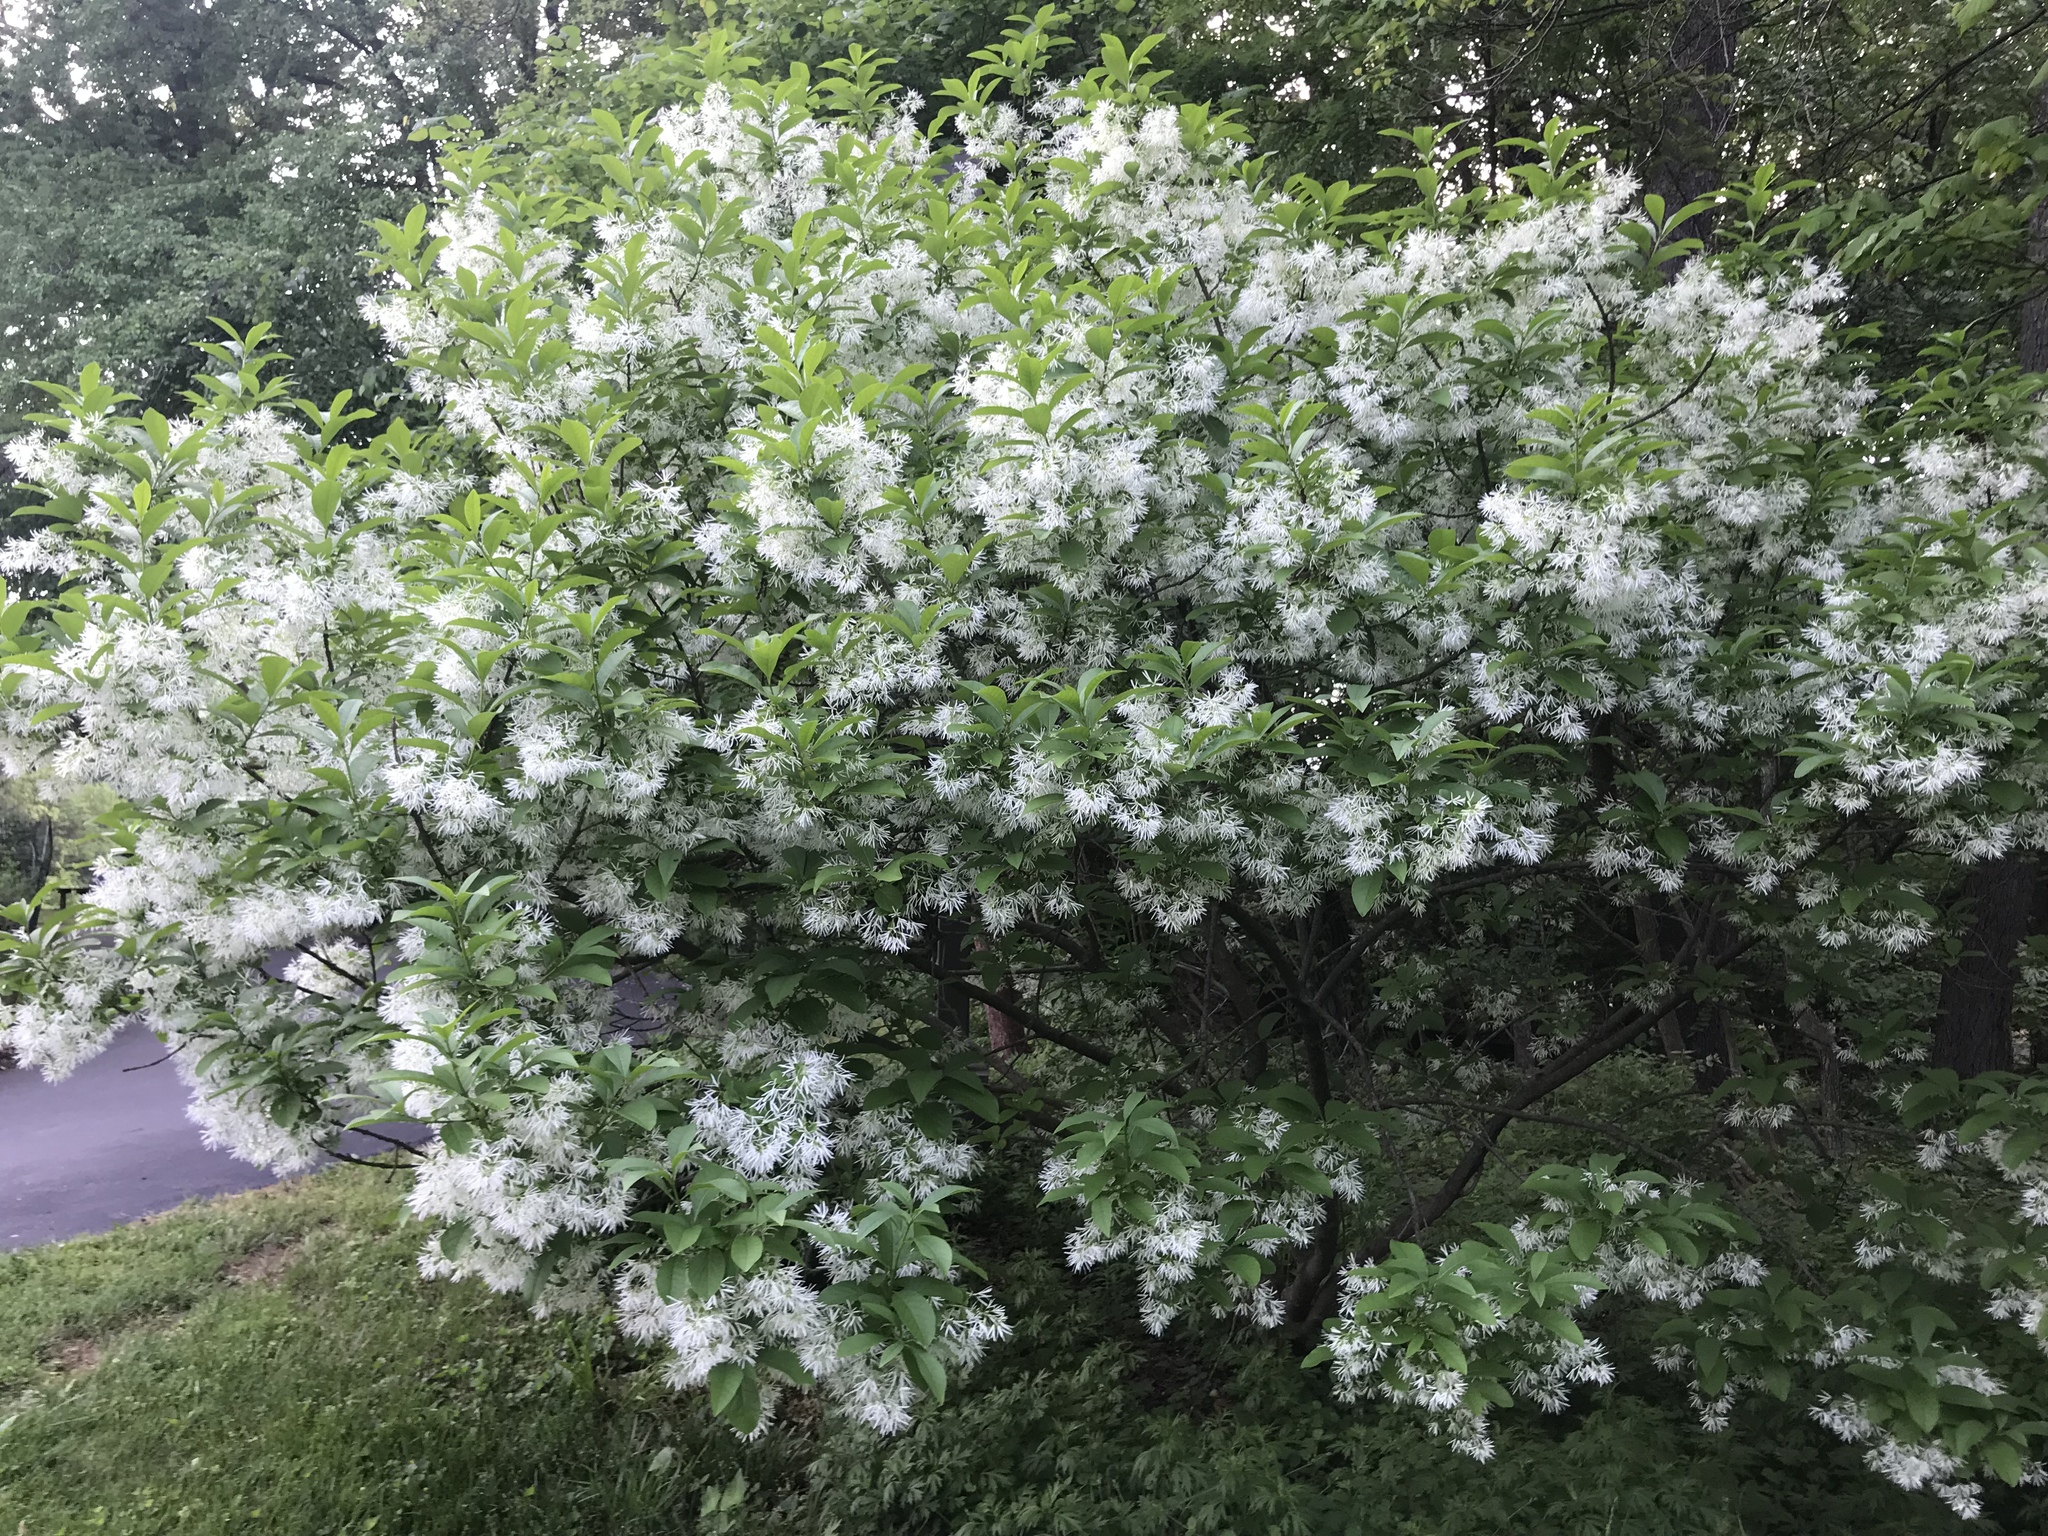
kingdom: Plantae
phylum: Tracheophyta
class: Magnoliopsida
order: Lamiales
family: Oleaceae
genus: Chionanthus
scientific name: Chionanthus virginicus
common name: American fringetree
